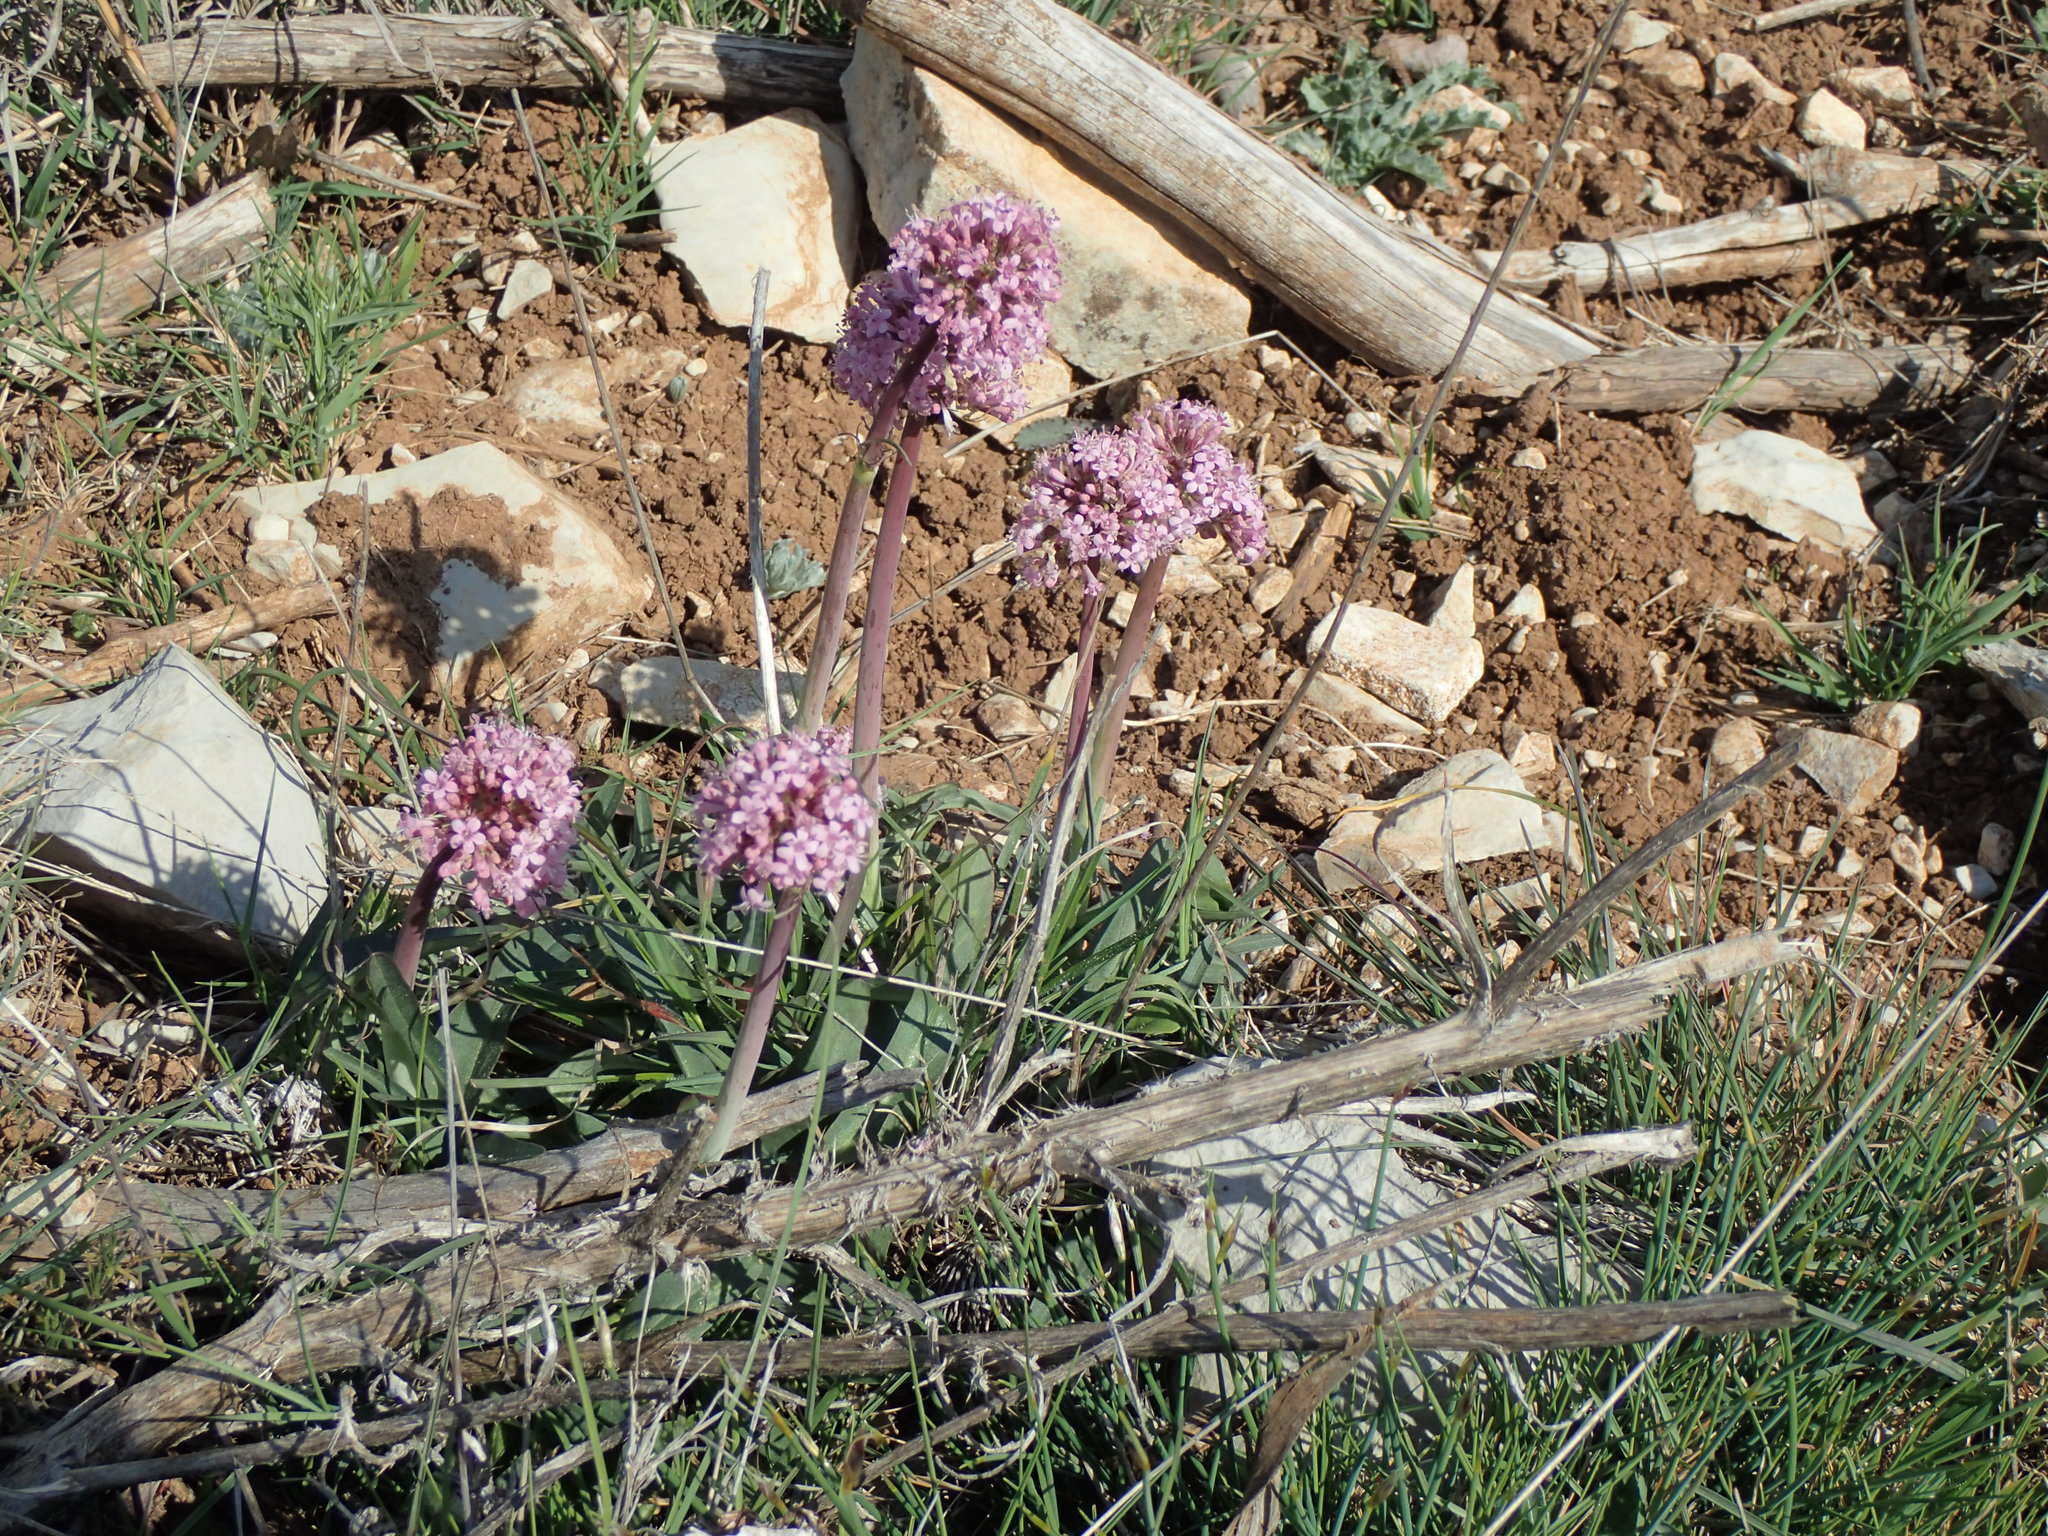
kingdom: Plantae
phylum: Tracheophyta
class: Magnoliopsida
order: Dipsacales
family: Caprifoliaceae
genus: Valeriana
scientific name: Valeriana tuberosa
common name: Tuberous valerian
